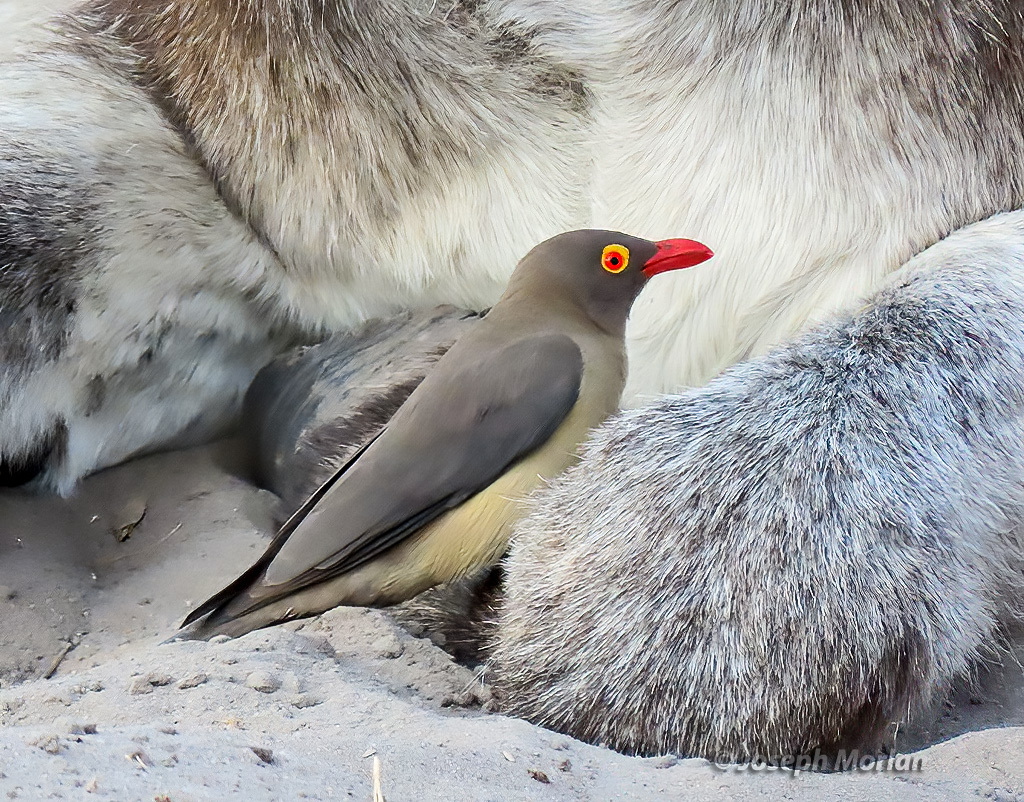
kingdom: Animalia
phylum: Chordata
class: Aves
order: Passeriformes
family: Buphagidae
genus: Buphagus
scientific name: Buphagus erythrorhynchus
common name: Red-billed oxpecker
